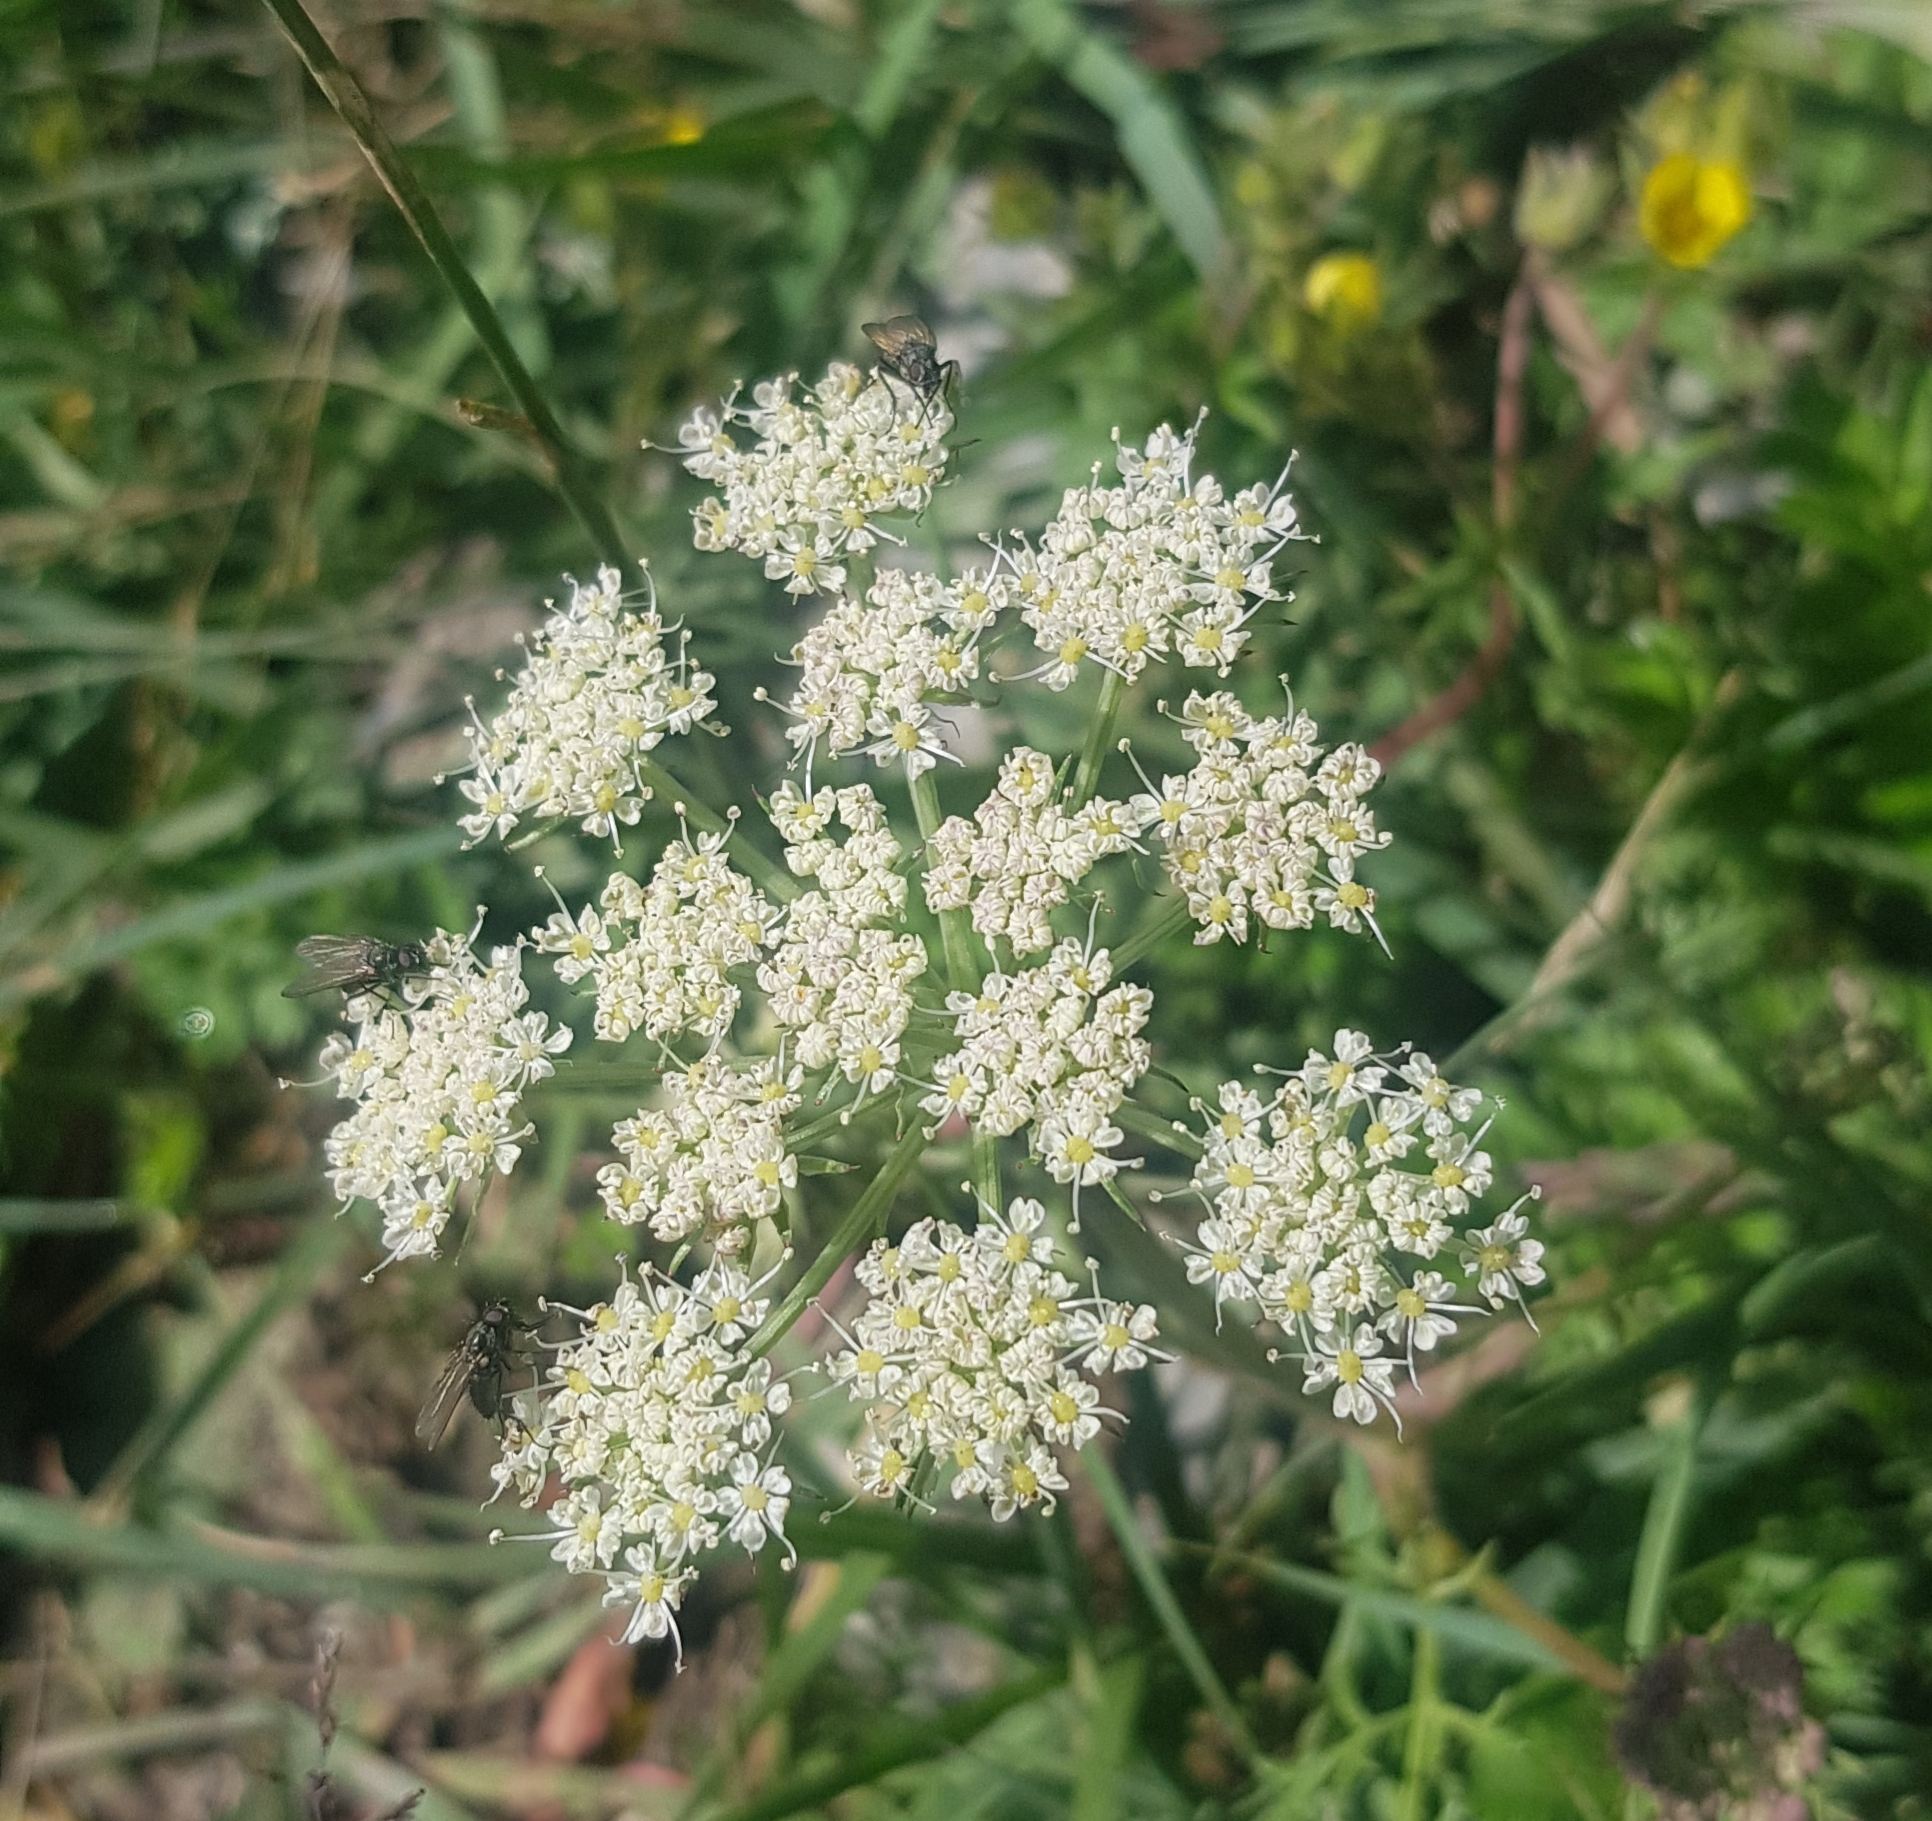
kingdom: Plantae
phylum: Tracheophyta
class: Magnoliopsida
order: Apiales
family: Apiaceae
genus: Kitagawia
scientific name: Kitagawia baicalensis
